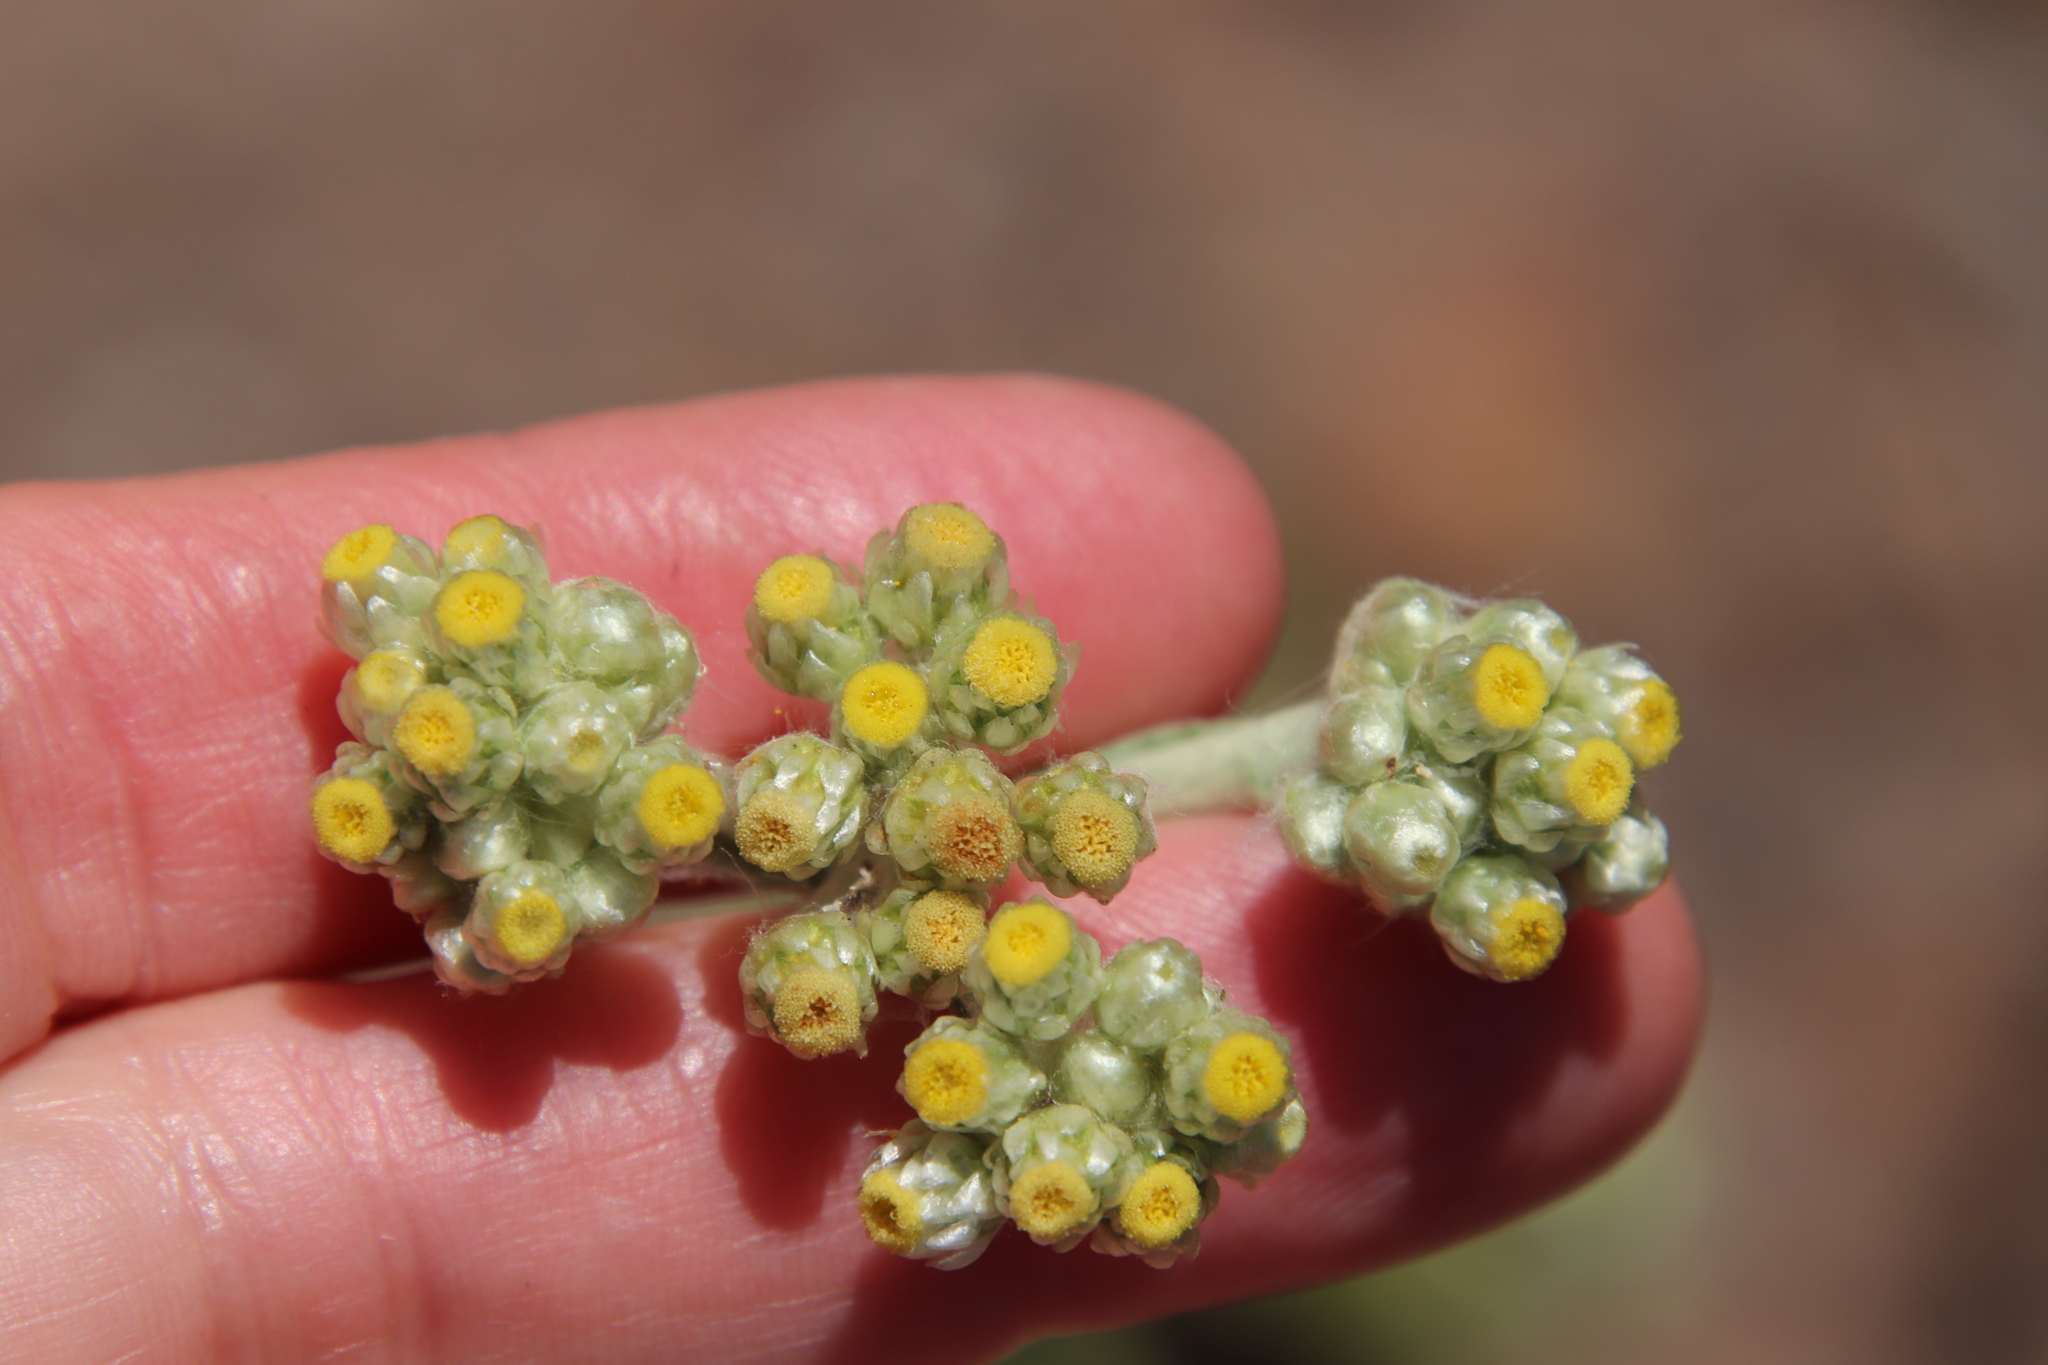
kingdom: Plantae
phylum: Tracheophyta
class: Magnoliopsida
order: Asterales
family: Asteraceae
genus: Pseudognaphalium
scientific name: Pseudognaphalium stramineum
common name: Cotton-batting-plant
